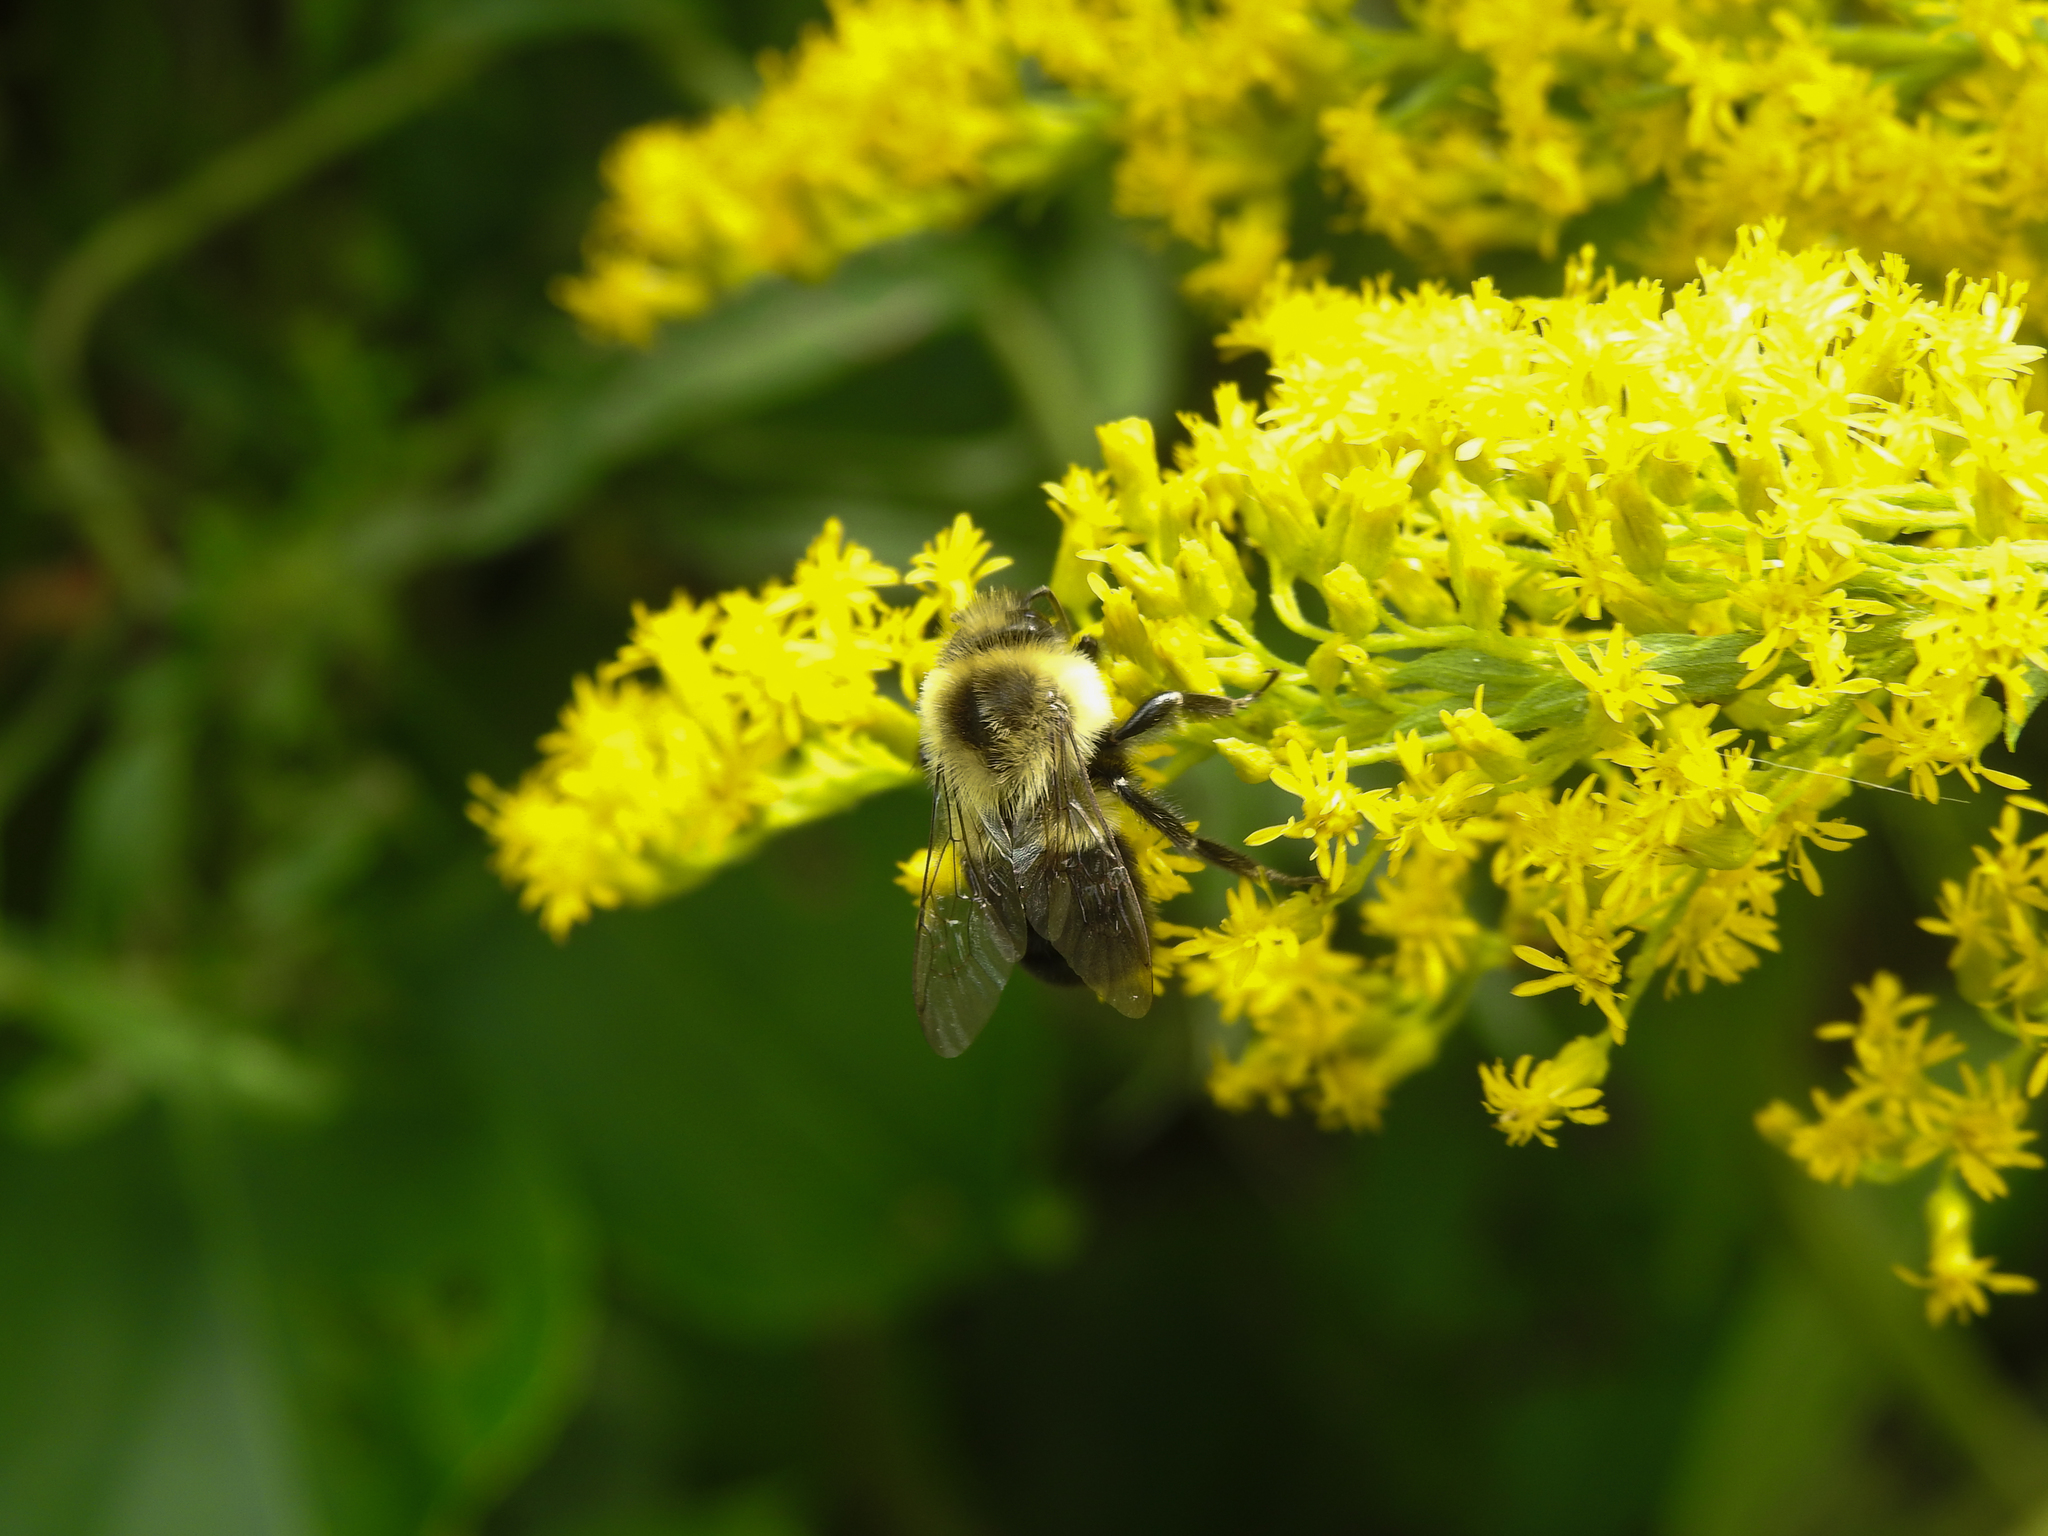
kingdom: Animalia
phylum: Arthropoda
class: Insecta
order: Hymenoptera
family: Apidae
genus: Bombus
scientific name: Bombus impatiens
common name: Common eastern bumble bee
